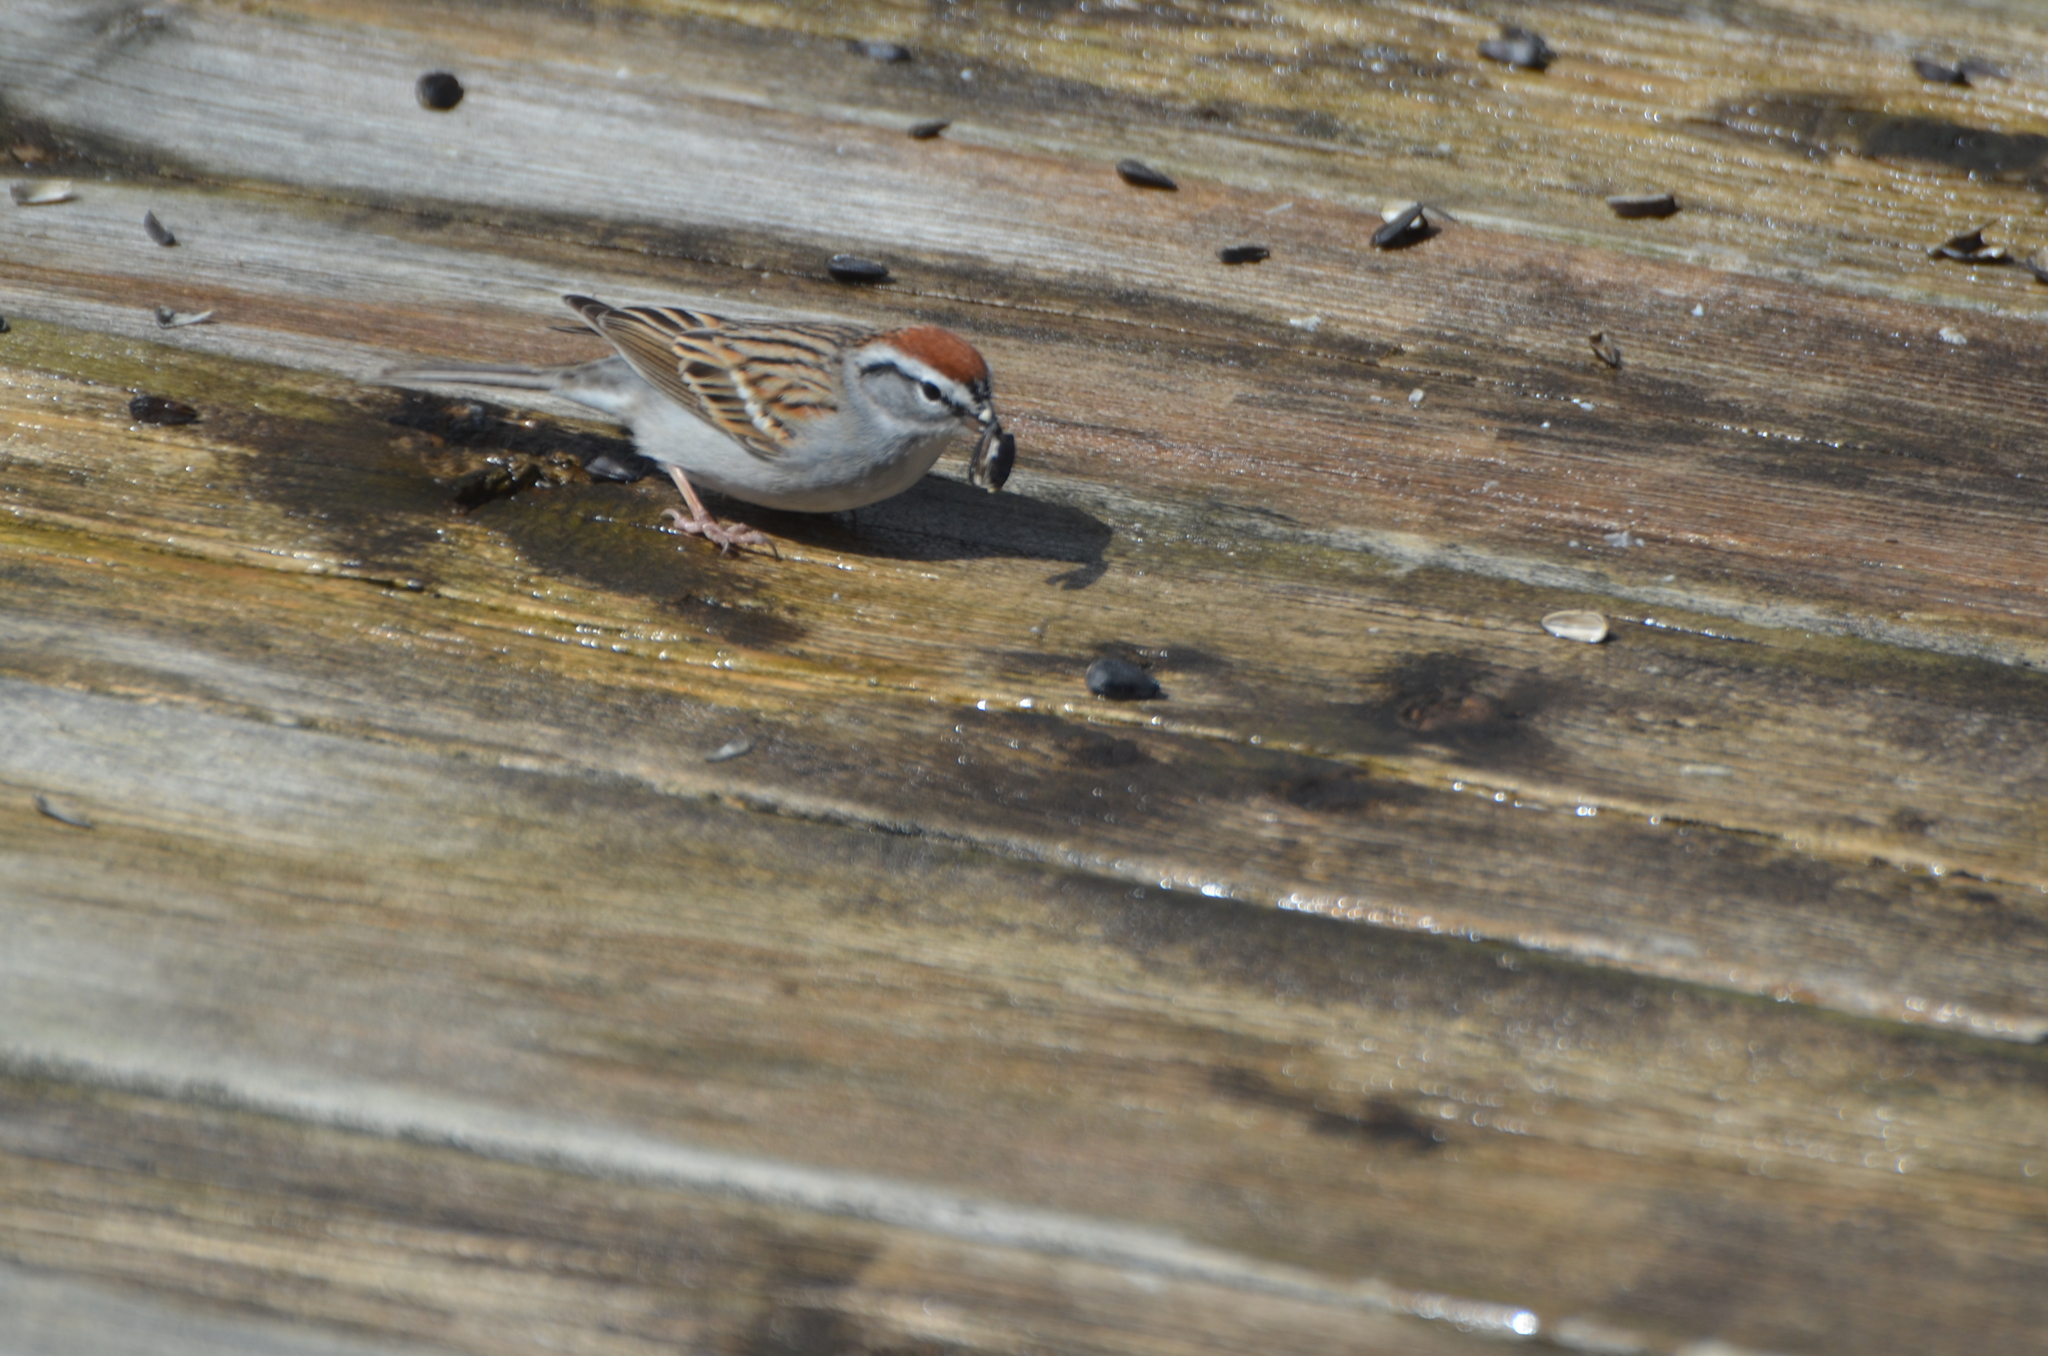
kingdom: Animalia
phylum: Chordata
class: Aves
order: Passeriformes
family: Passerellidae
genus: Spizella
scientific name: Spizella passerina
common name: Chipping sparrow
